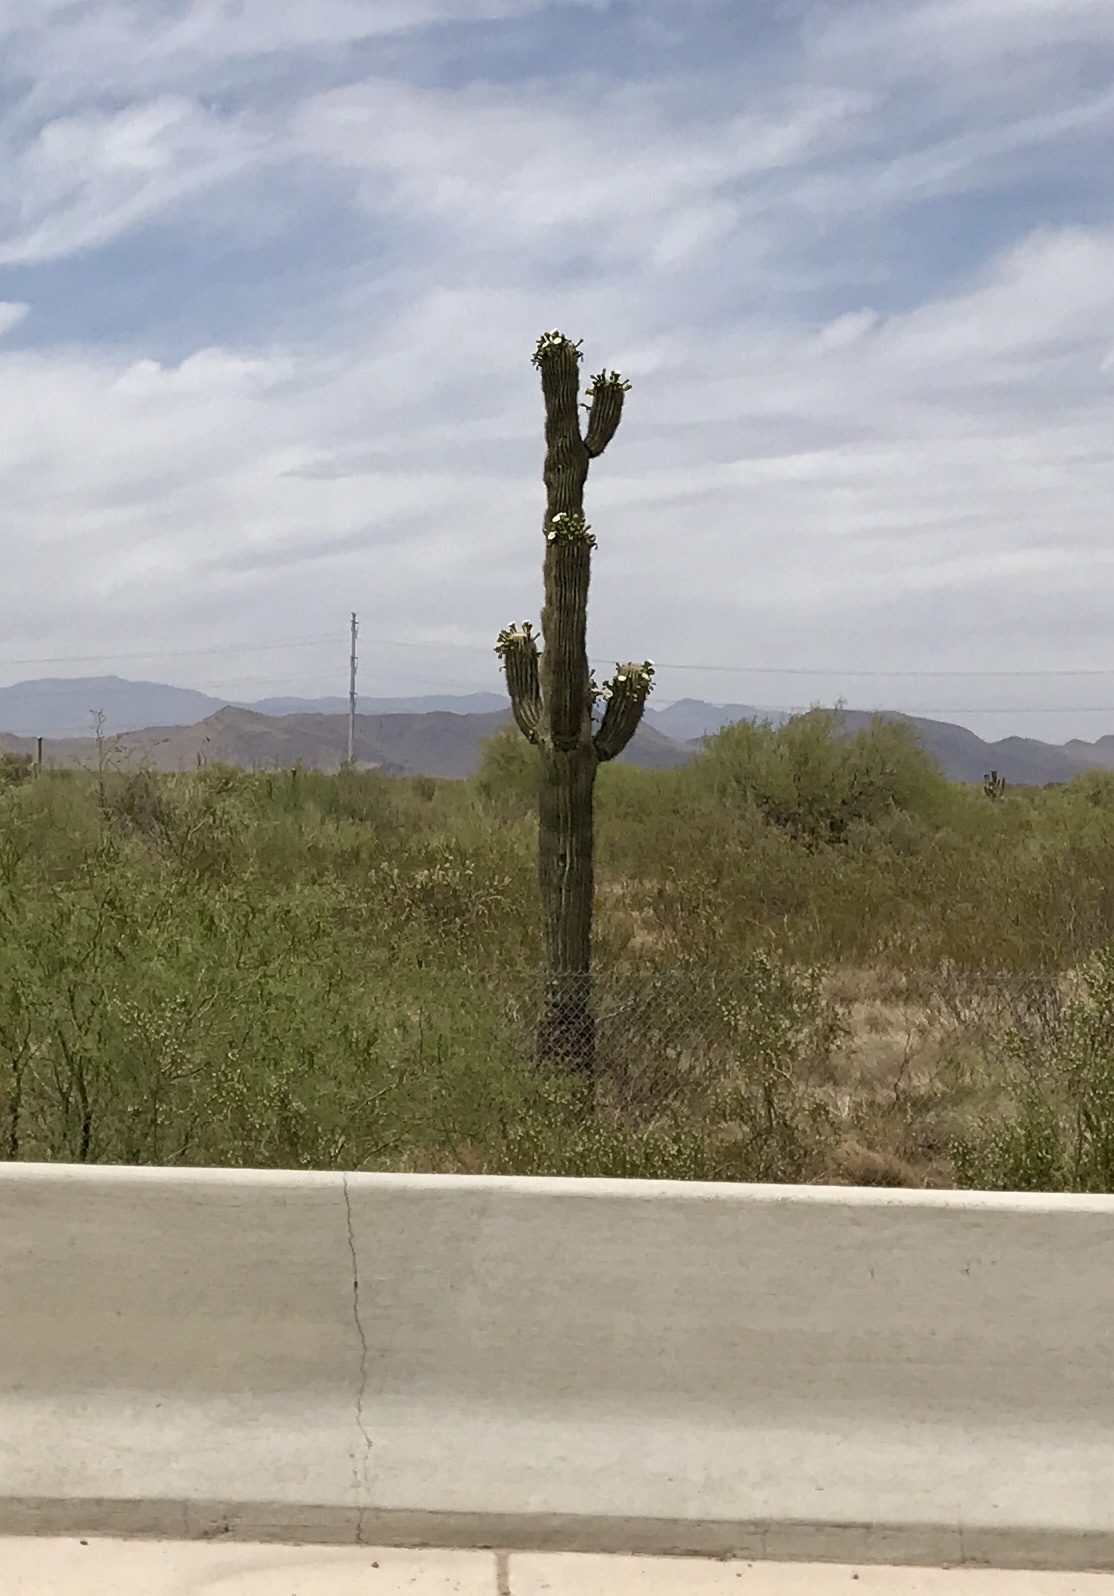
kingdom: Plantae
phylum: Tracheophyta
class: Magnoliopsida
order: Caryophyllales
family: Cactaceae
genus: Carnegiea
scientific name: Carnegiea gigantea
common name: Saguaro
